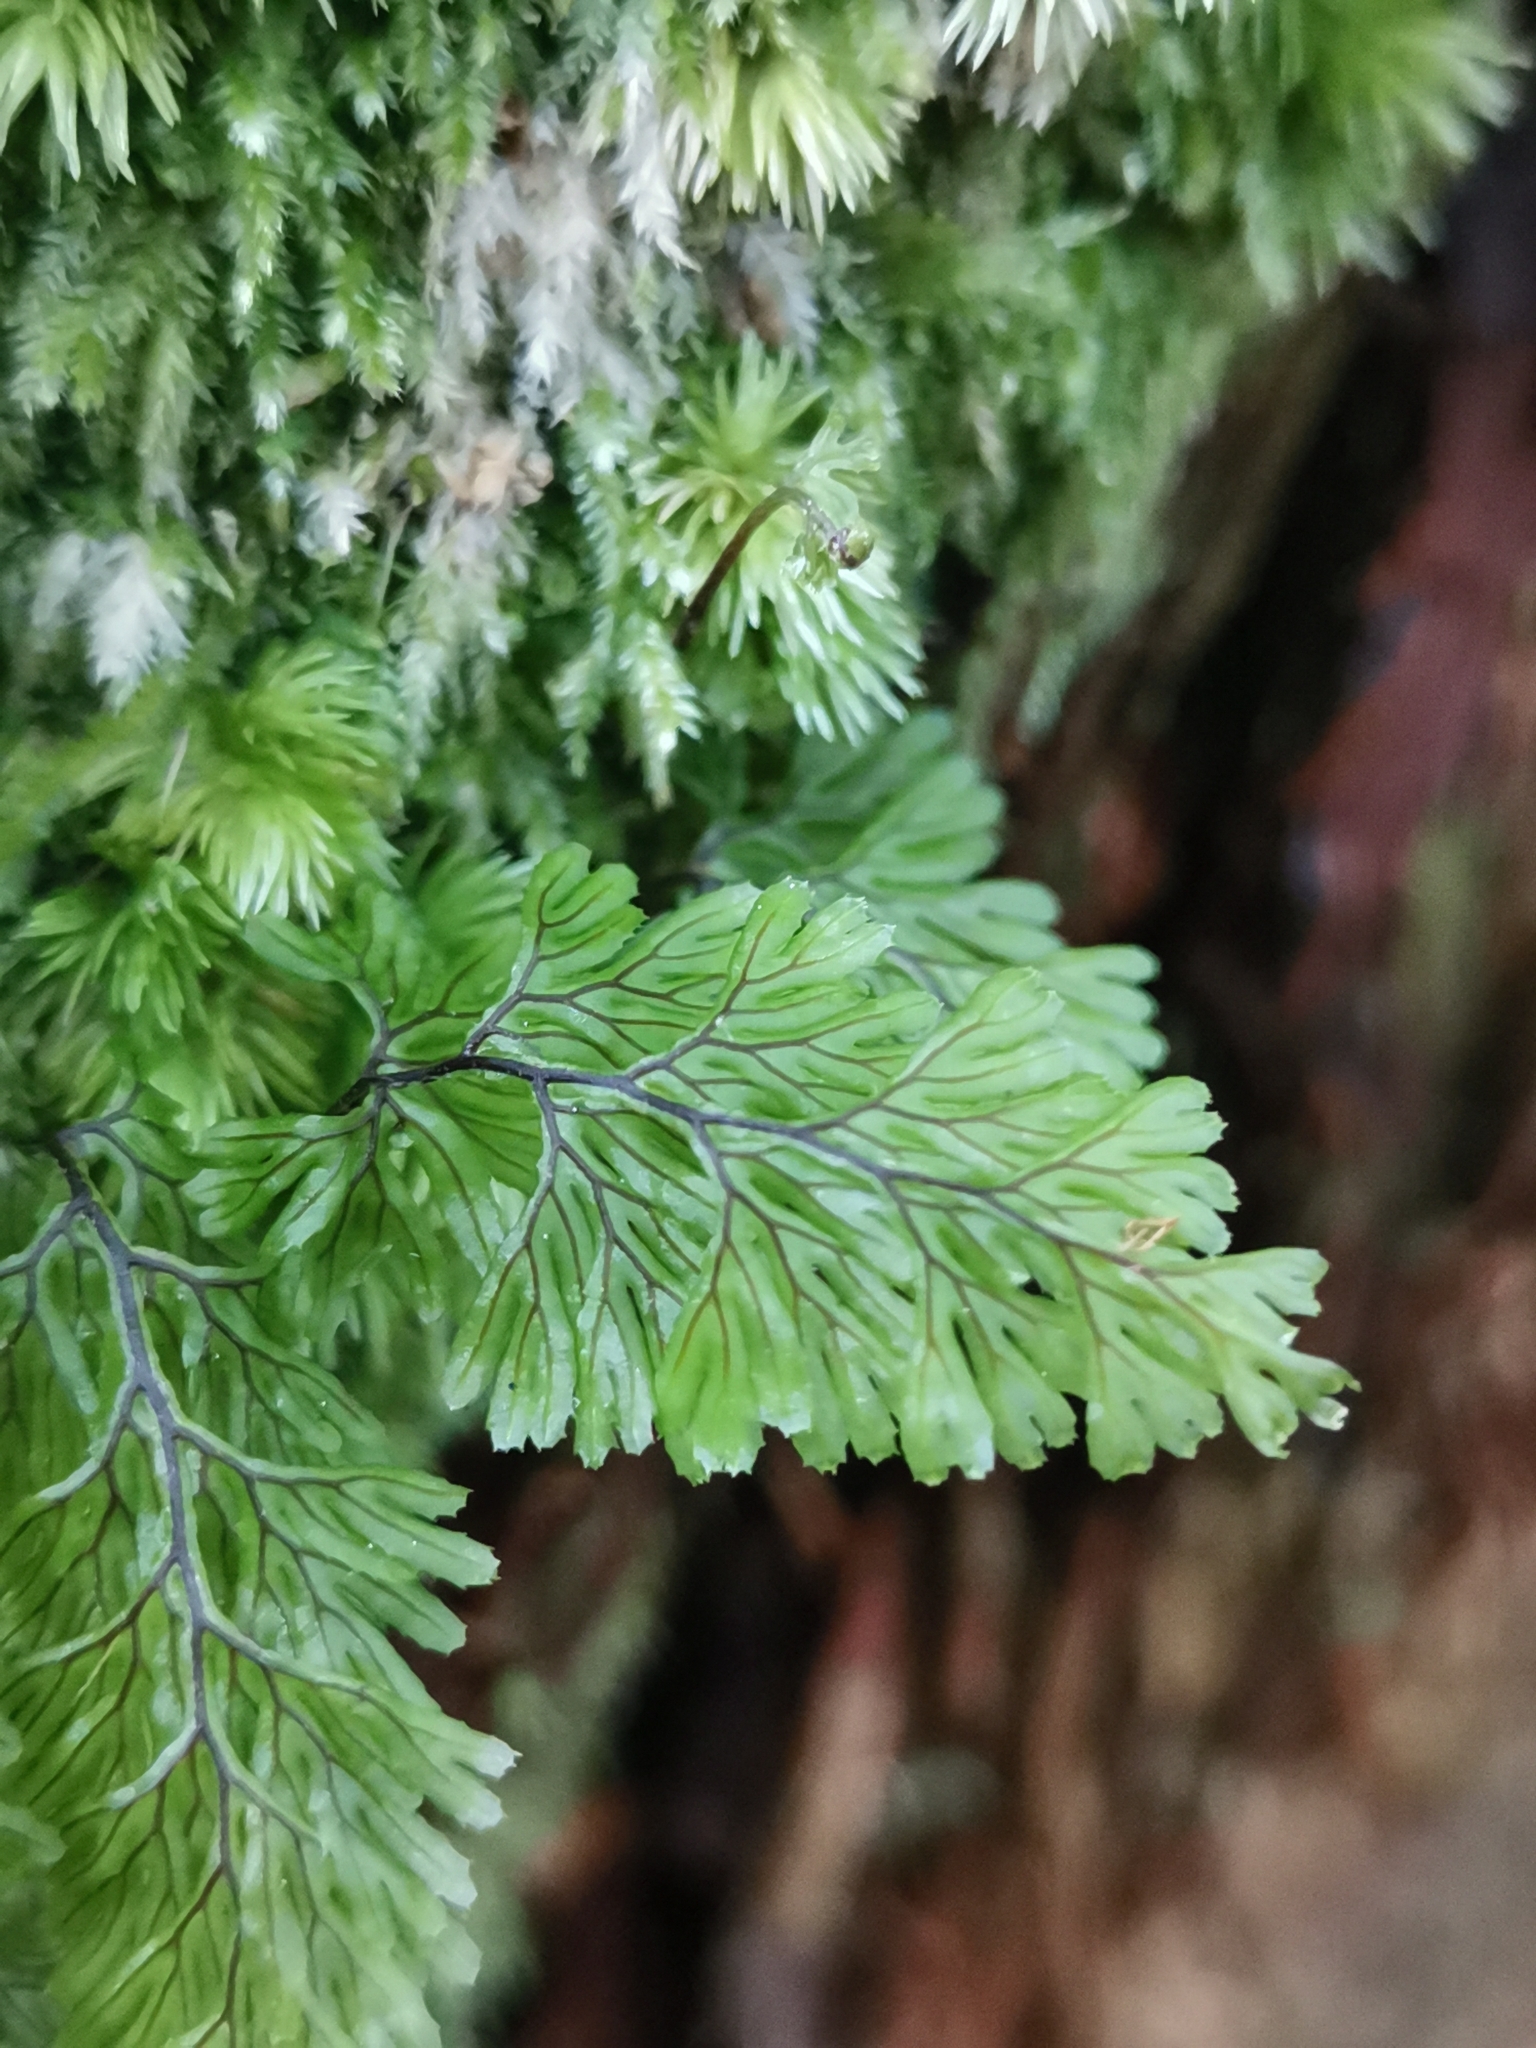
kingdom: Plantae
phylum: Tracheophyta
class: Polypodiopsida
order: Hymenophyllales
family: Hymenophyllaceae
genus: Hymenophyllum
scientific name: Hymenophyllum tunbrigense
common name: Tunbridge filmy fern
